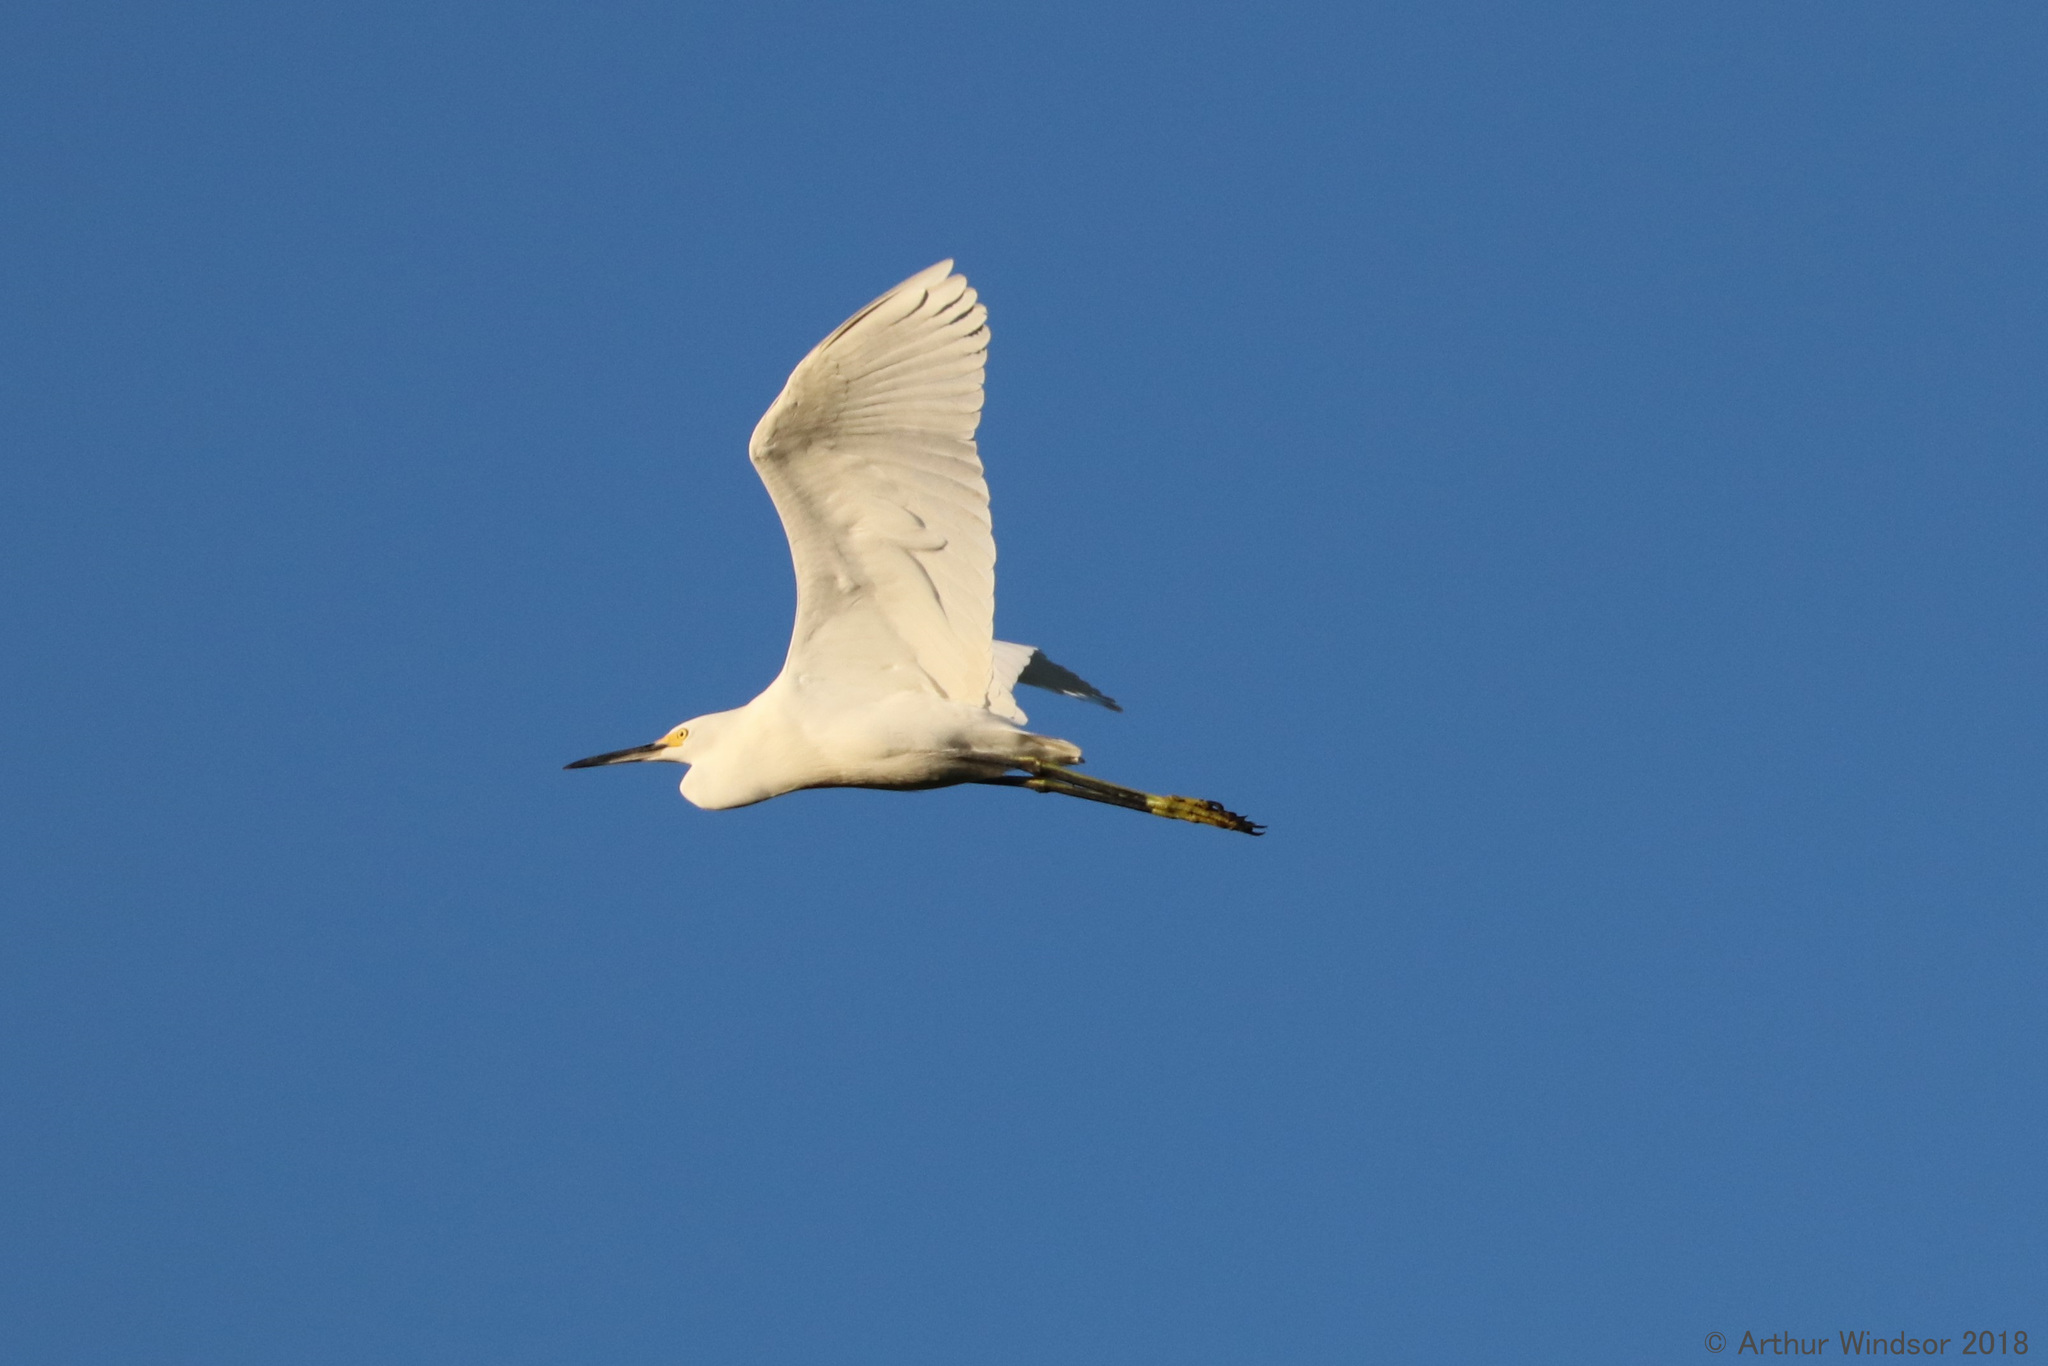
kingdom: Animalia
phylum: Chordata
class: Aves
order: Pelecaniformes
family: Ardeidae
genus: Egretta
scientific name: Egretta thula
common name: Snowy egret
